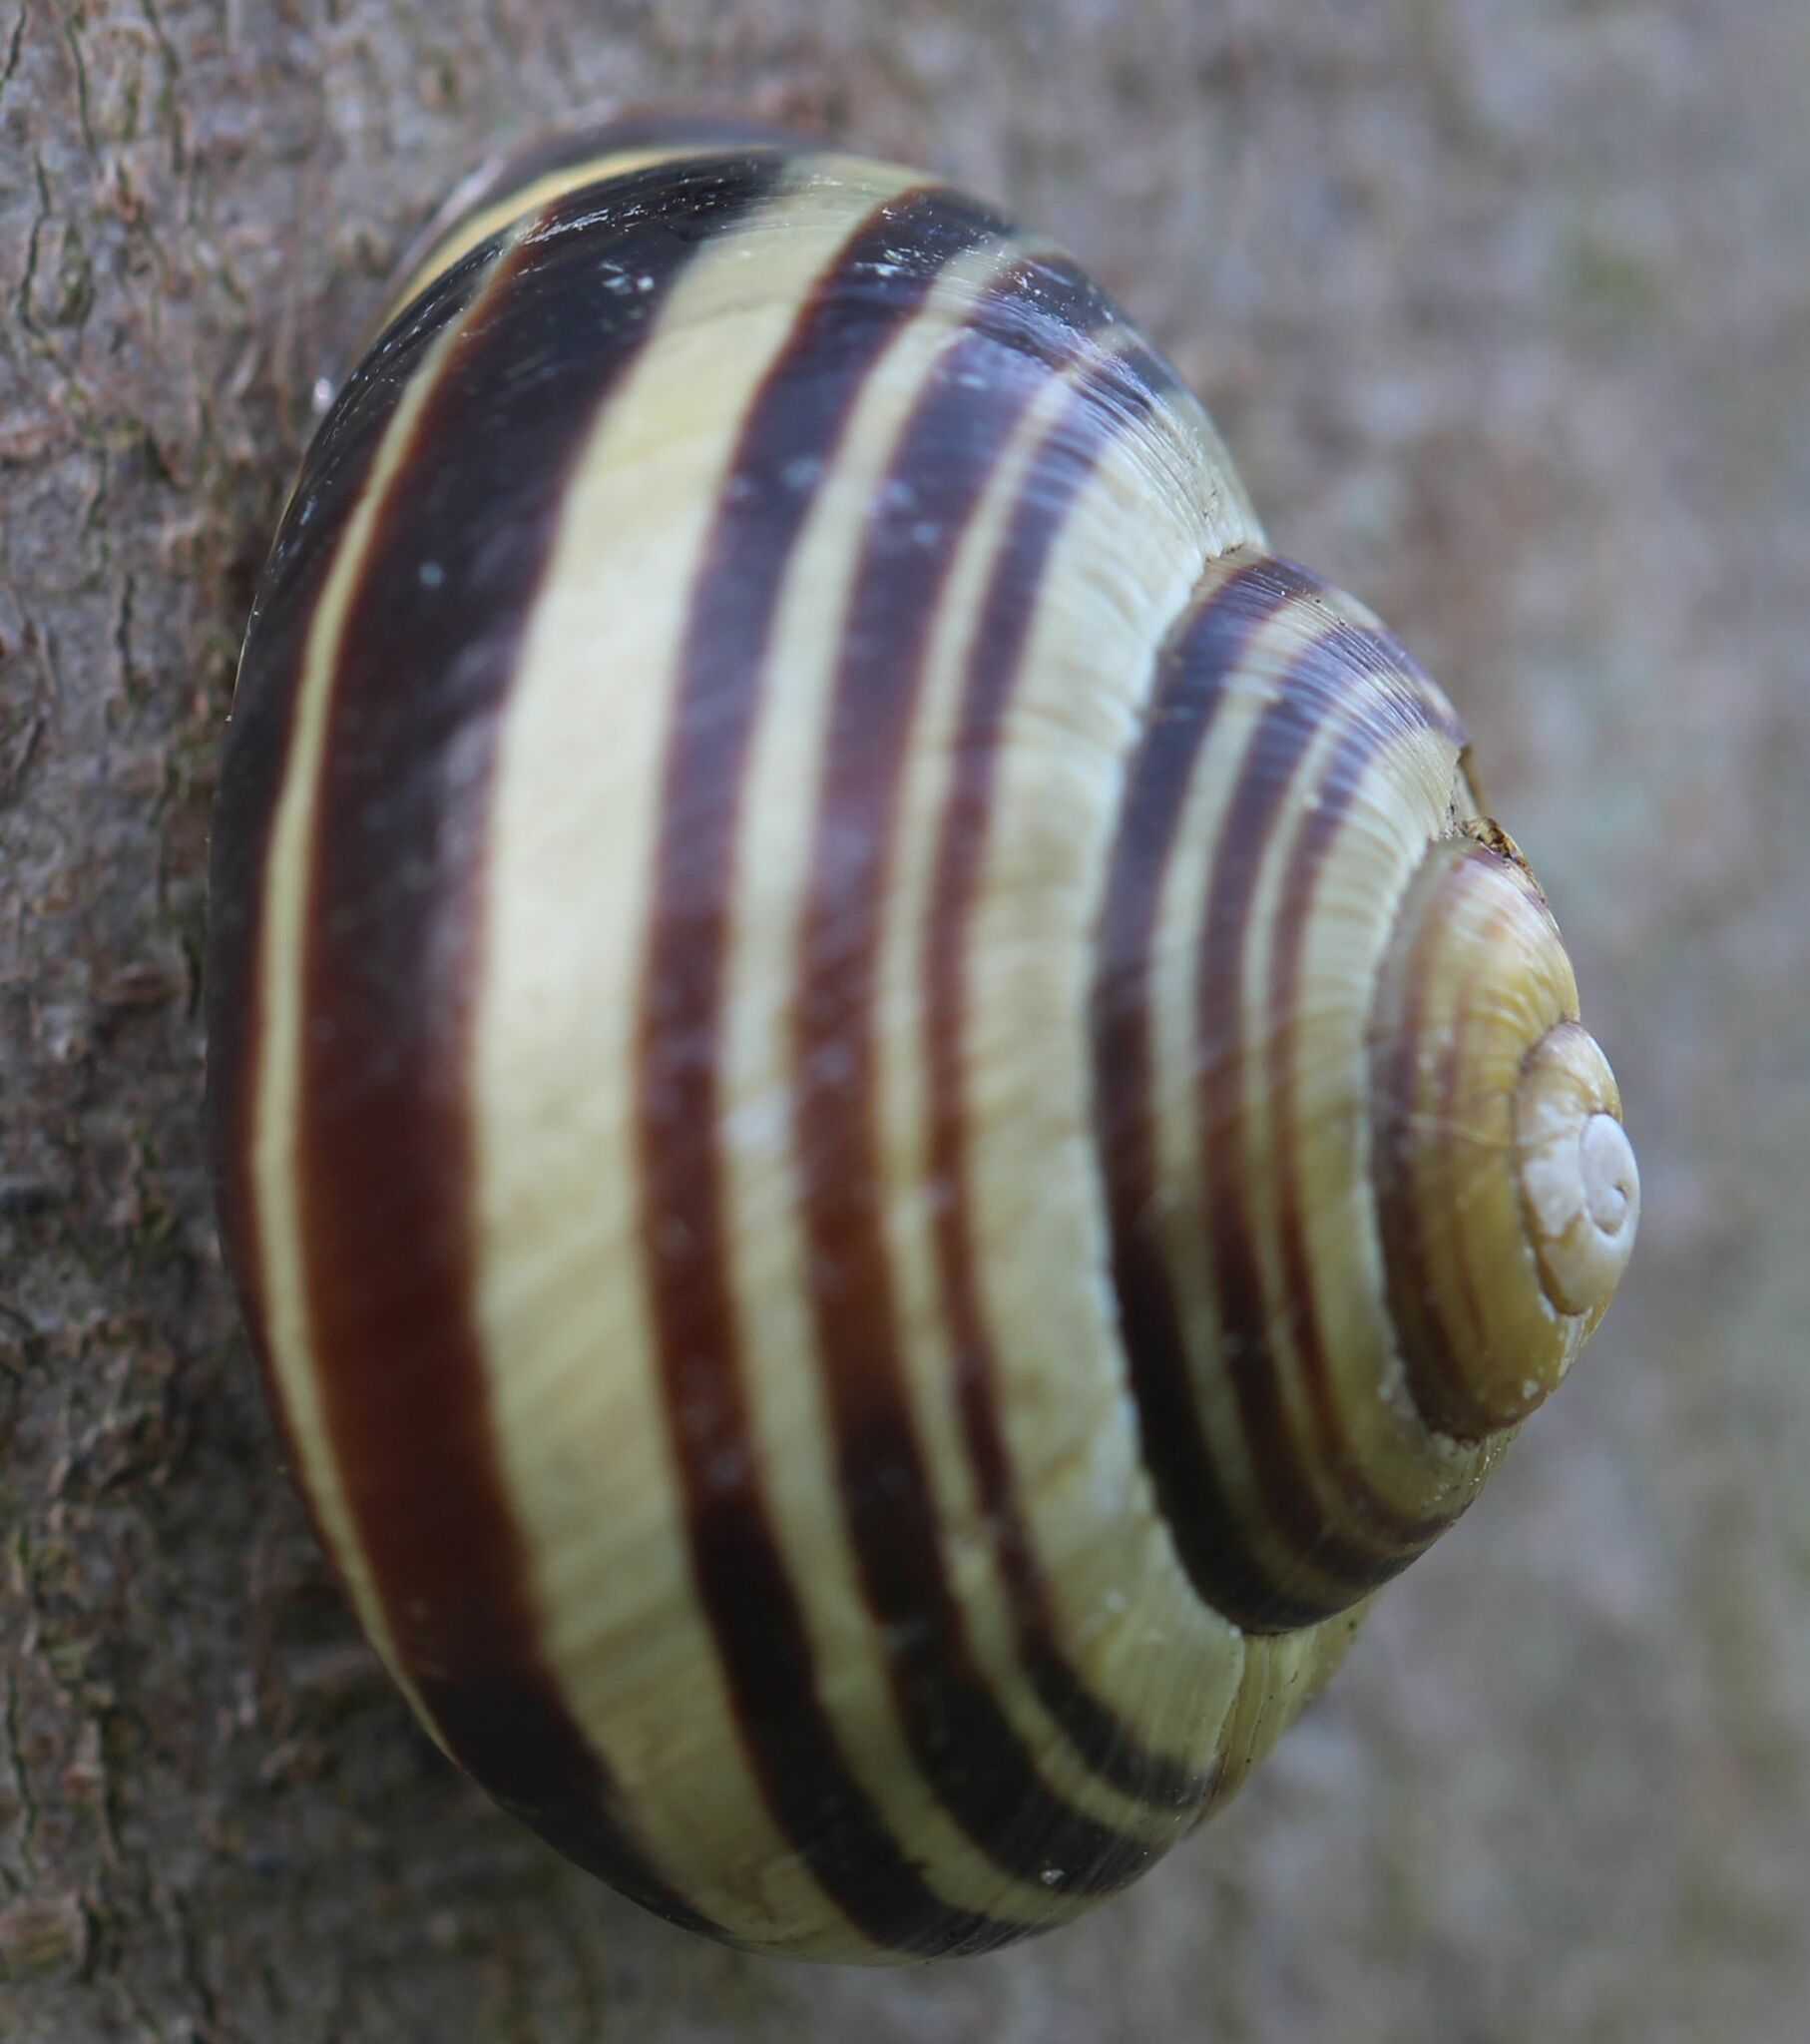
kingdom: Animalia
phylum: Mollusca
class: Gastropoda
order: Stylommatophora
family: Helicidae
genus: Cepaea
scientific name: Cepaea nemoralis
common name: Grovesnail
